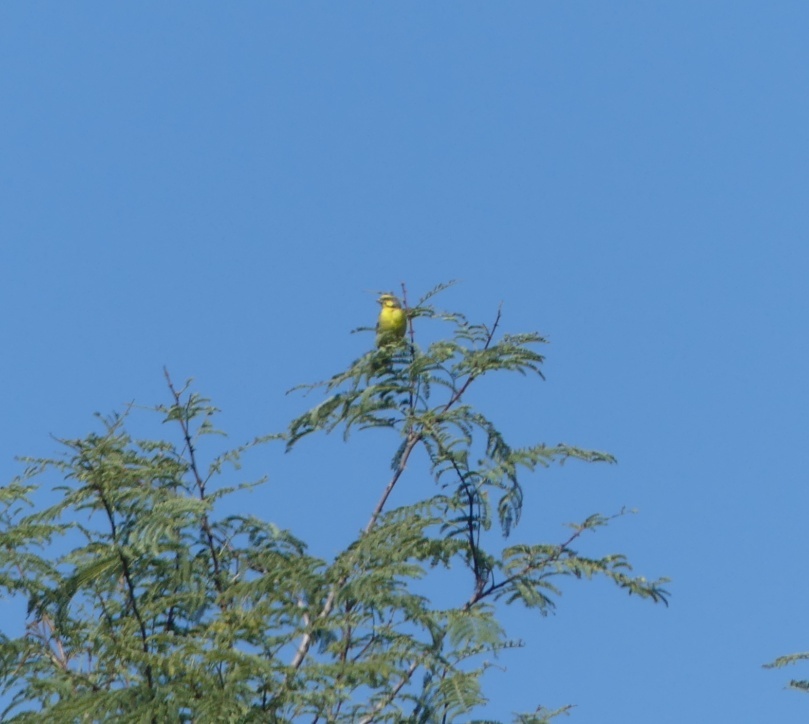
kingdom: Animalia
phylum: Chordata
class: Aves
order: Passeriformes
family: Fringillidae
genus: Crithagra
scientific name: Crithagra mozambica
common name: Yellow-fronted canary
